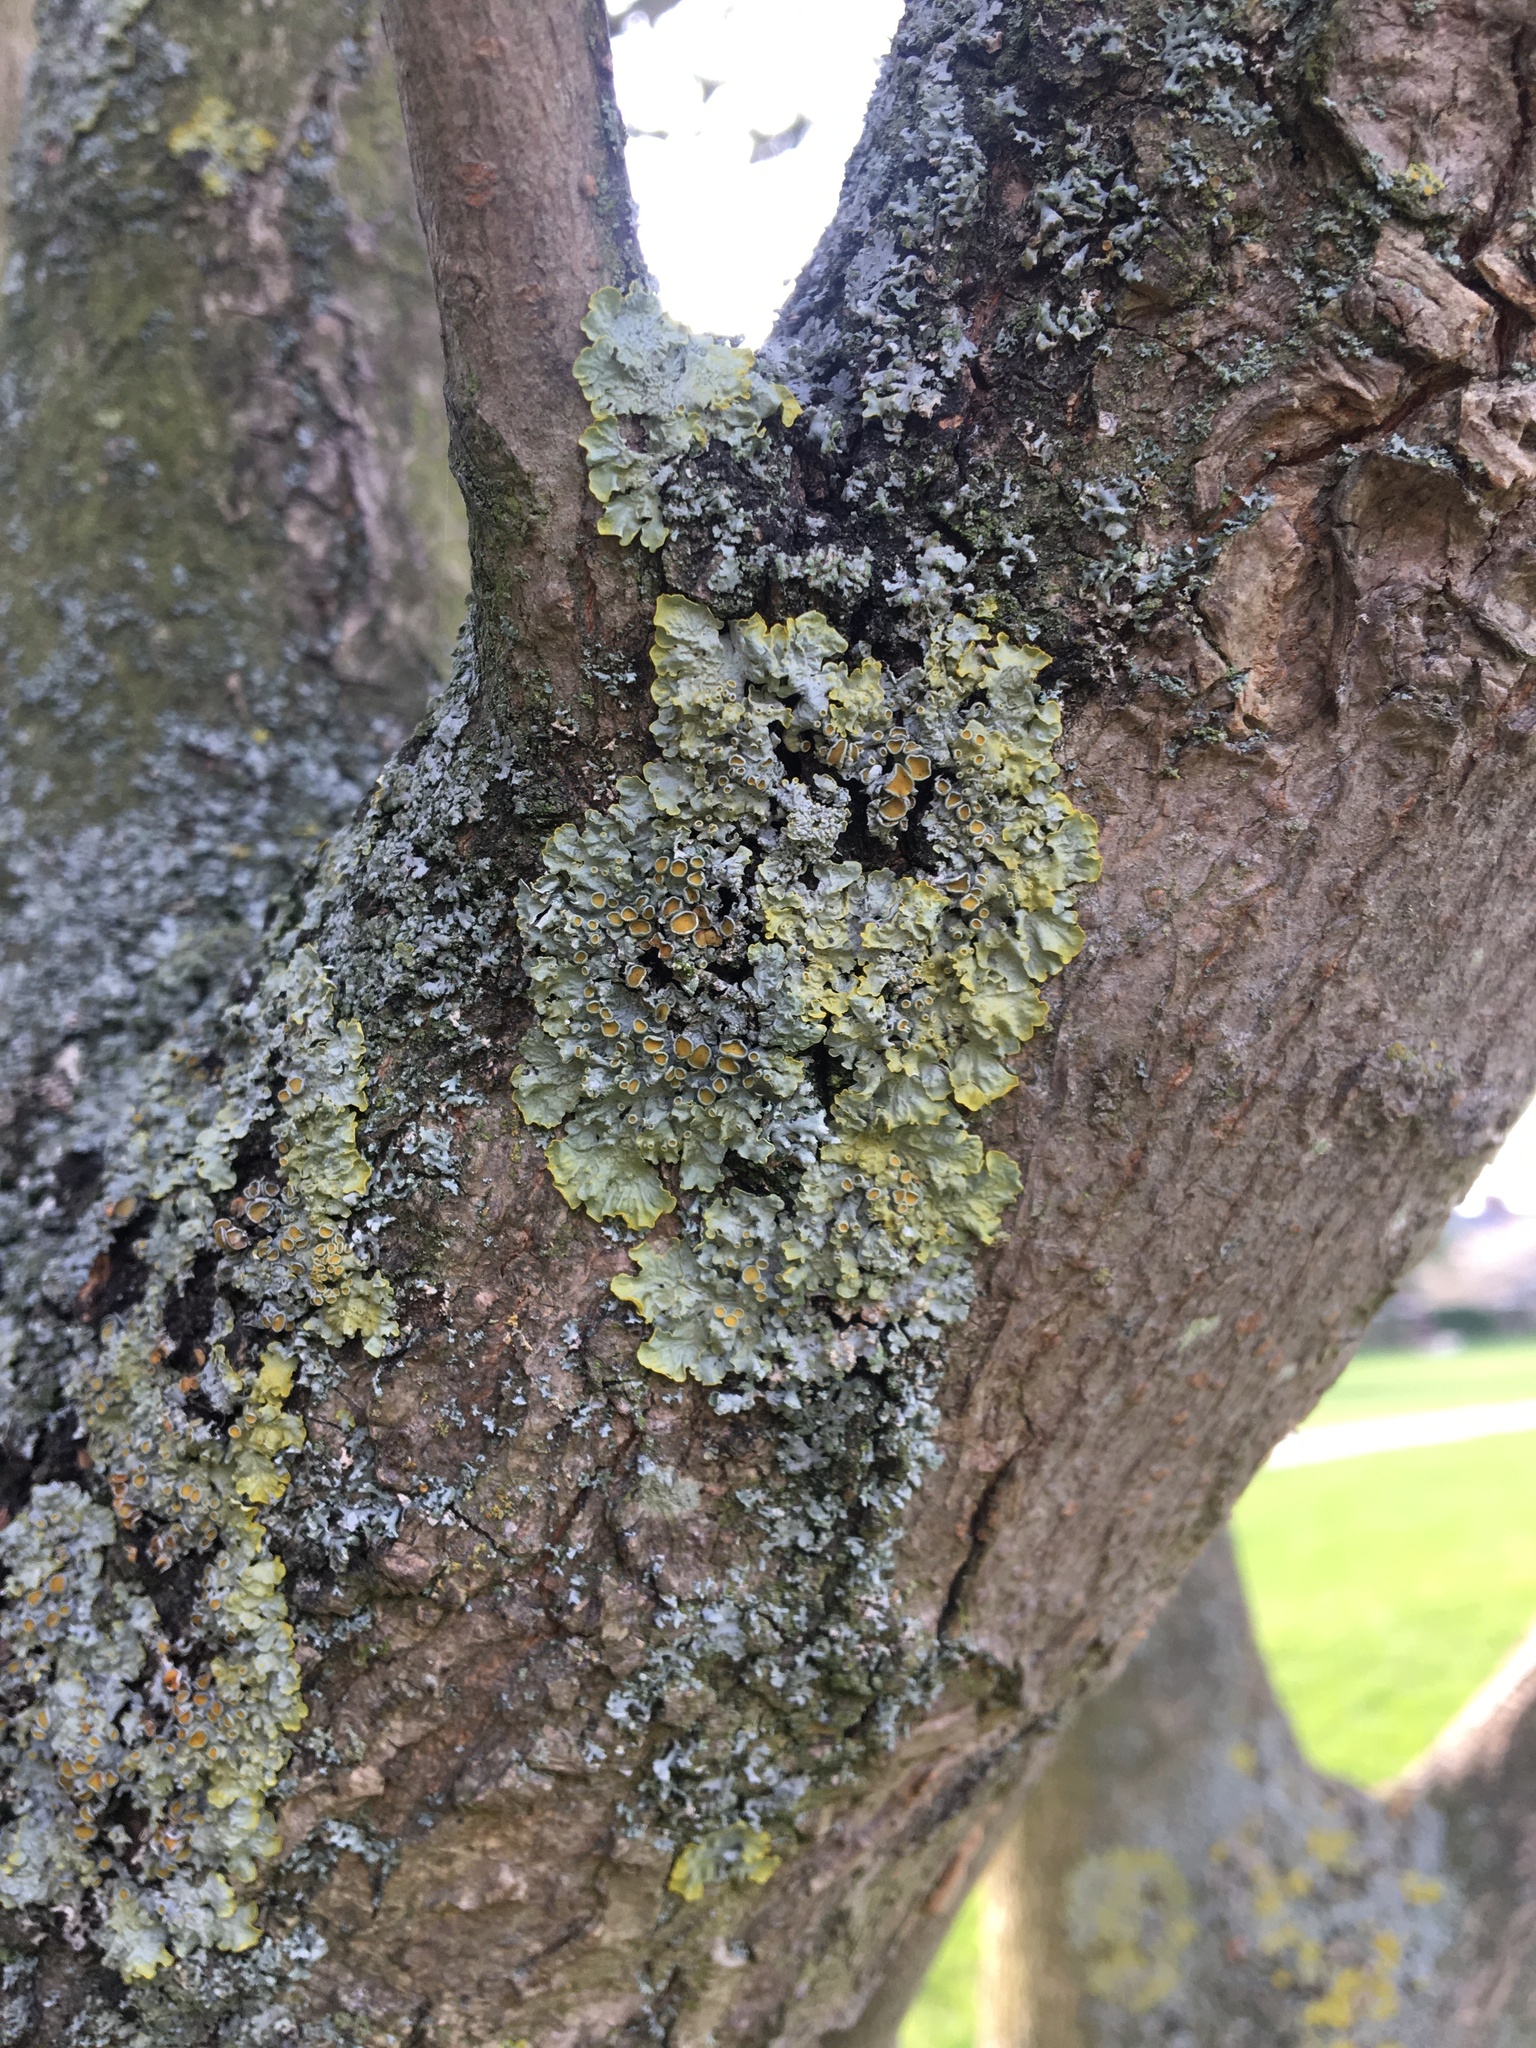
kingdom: Fungi
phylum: Ascomycota
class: Lecanoromycetes
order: Teloschistales
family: Teloschistaceae
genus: Xanthoria
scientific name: Xanthoria parietina
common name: Common orange lichen
